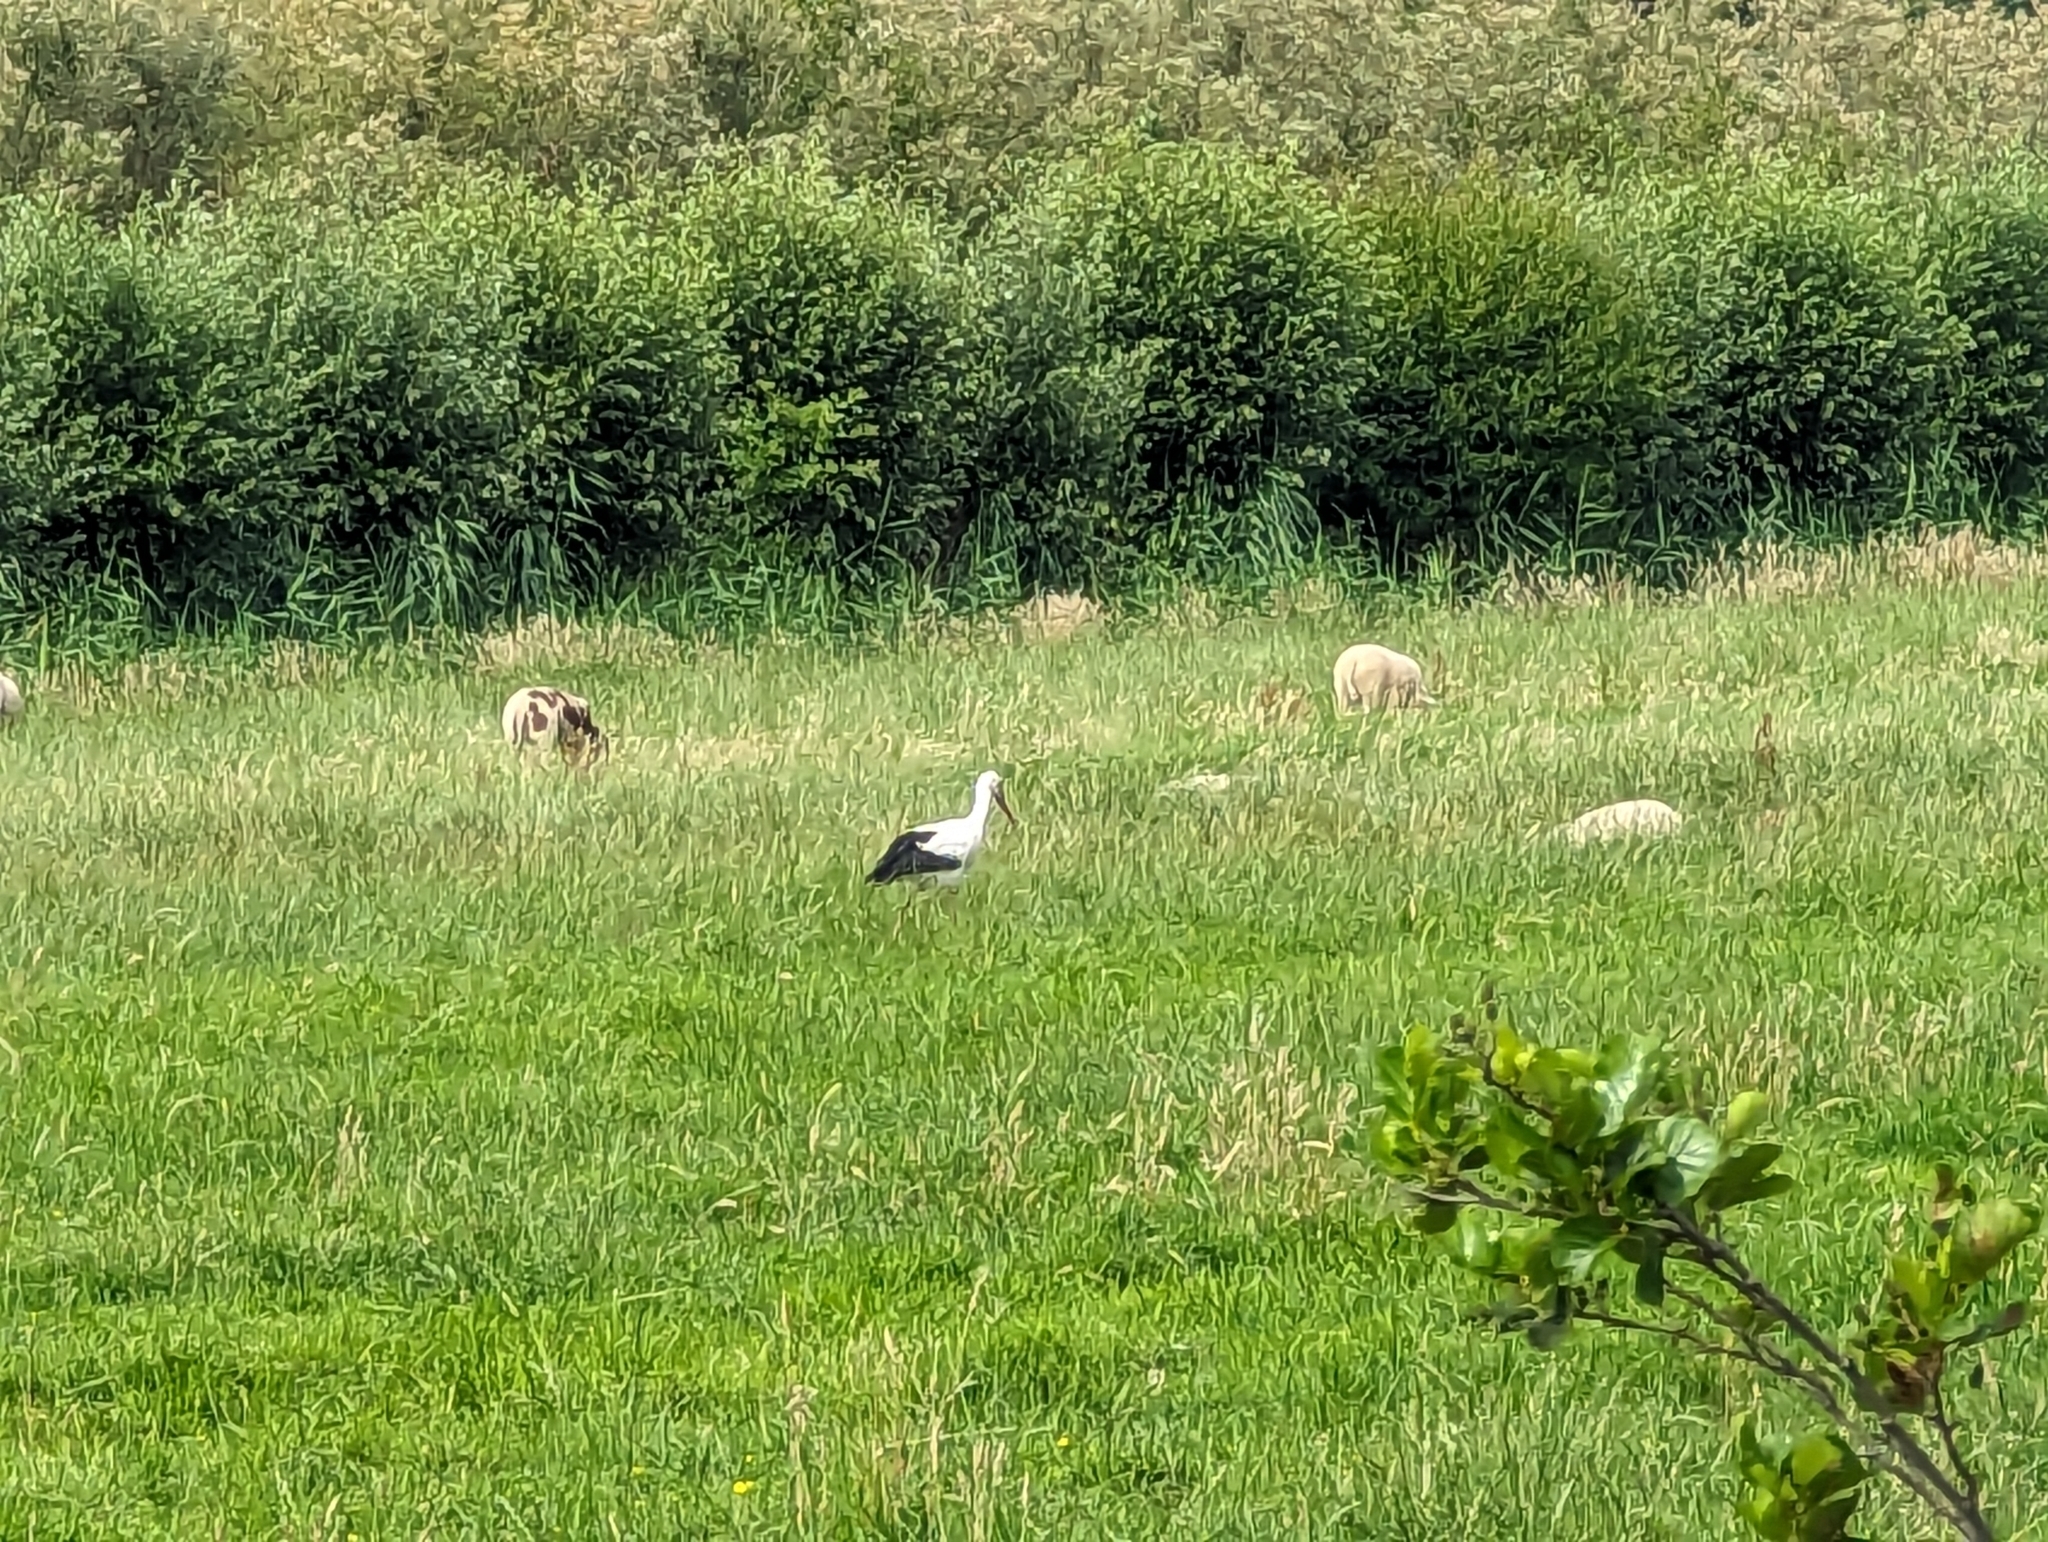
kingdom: Animalia
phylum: Chordata
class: Aves
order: Ciconiiformes
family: Ciconiidae
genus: Ciconia
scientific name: Ciconia ciconia
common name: White stork
